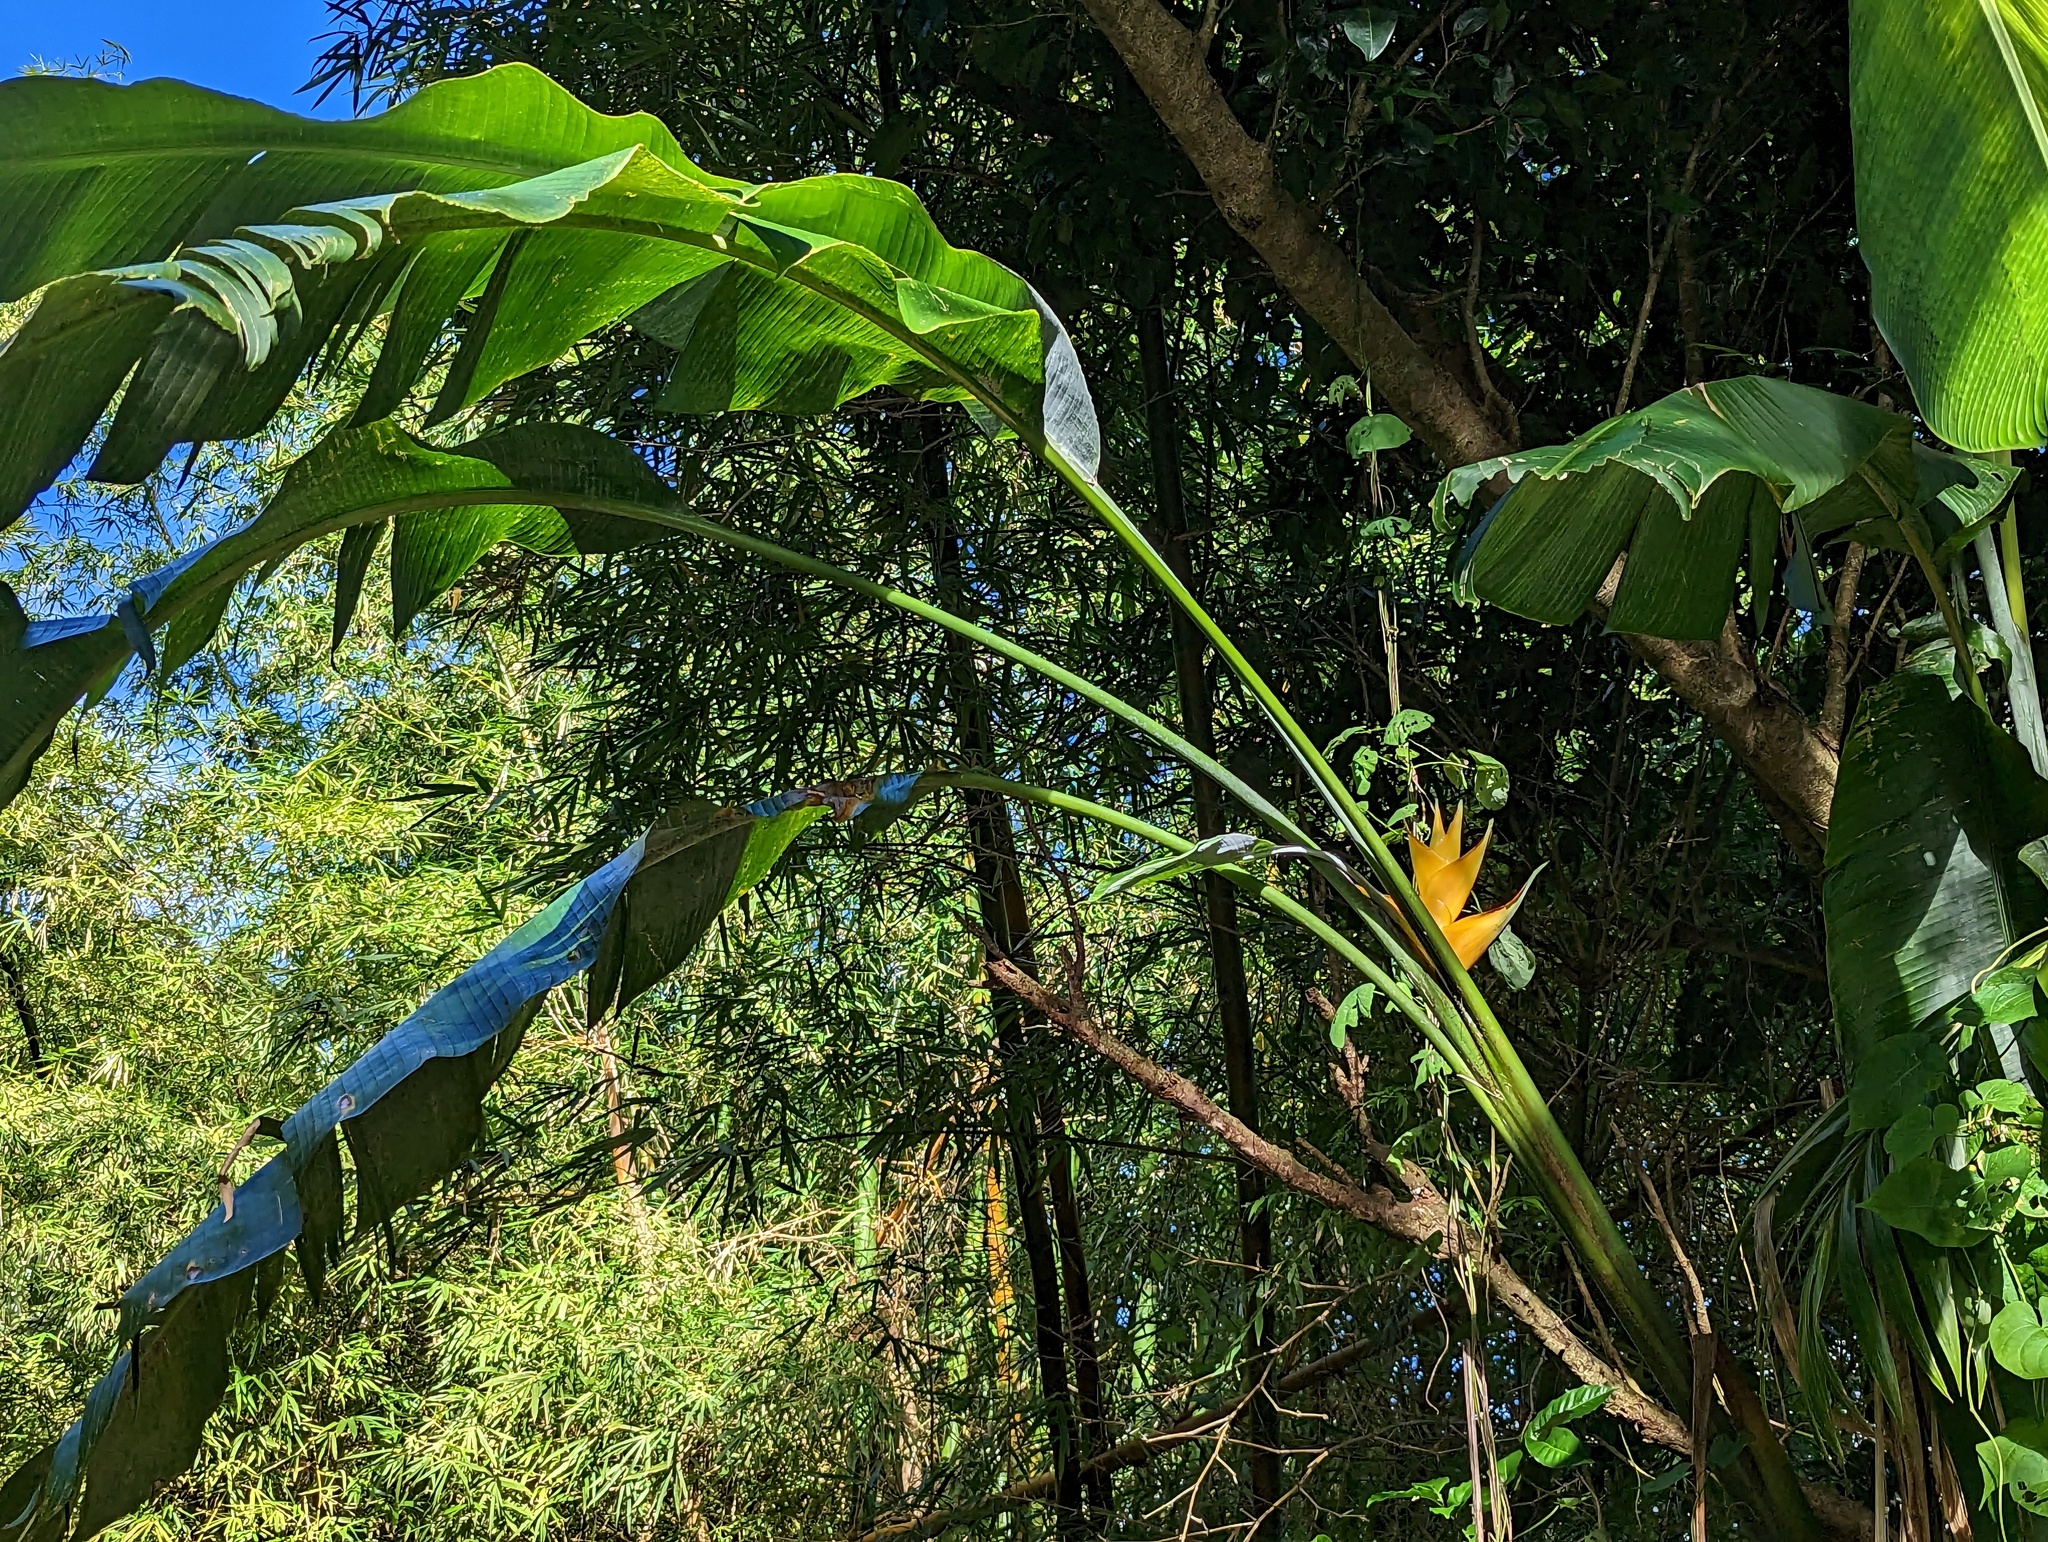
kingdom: Plantae
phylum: Tracheophyta
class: Liliopsida
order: Zingiberales
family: Heliconiaceae
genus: Heliconia
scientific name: Heliconia caribaea
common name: Wild plantain
